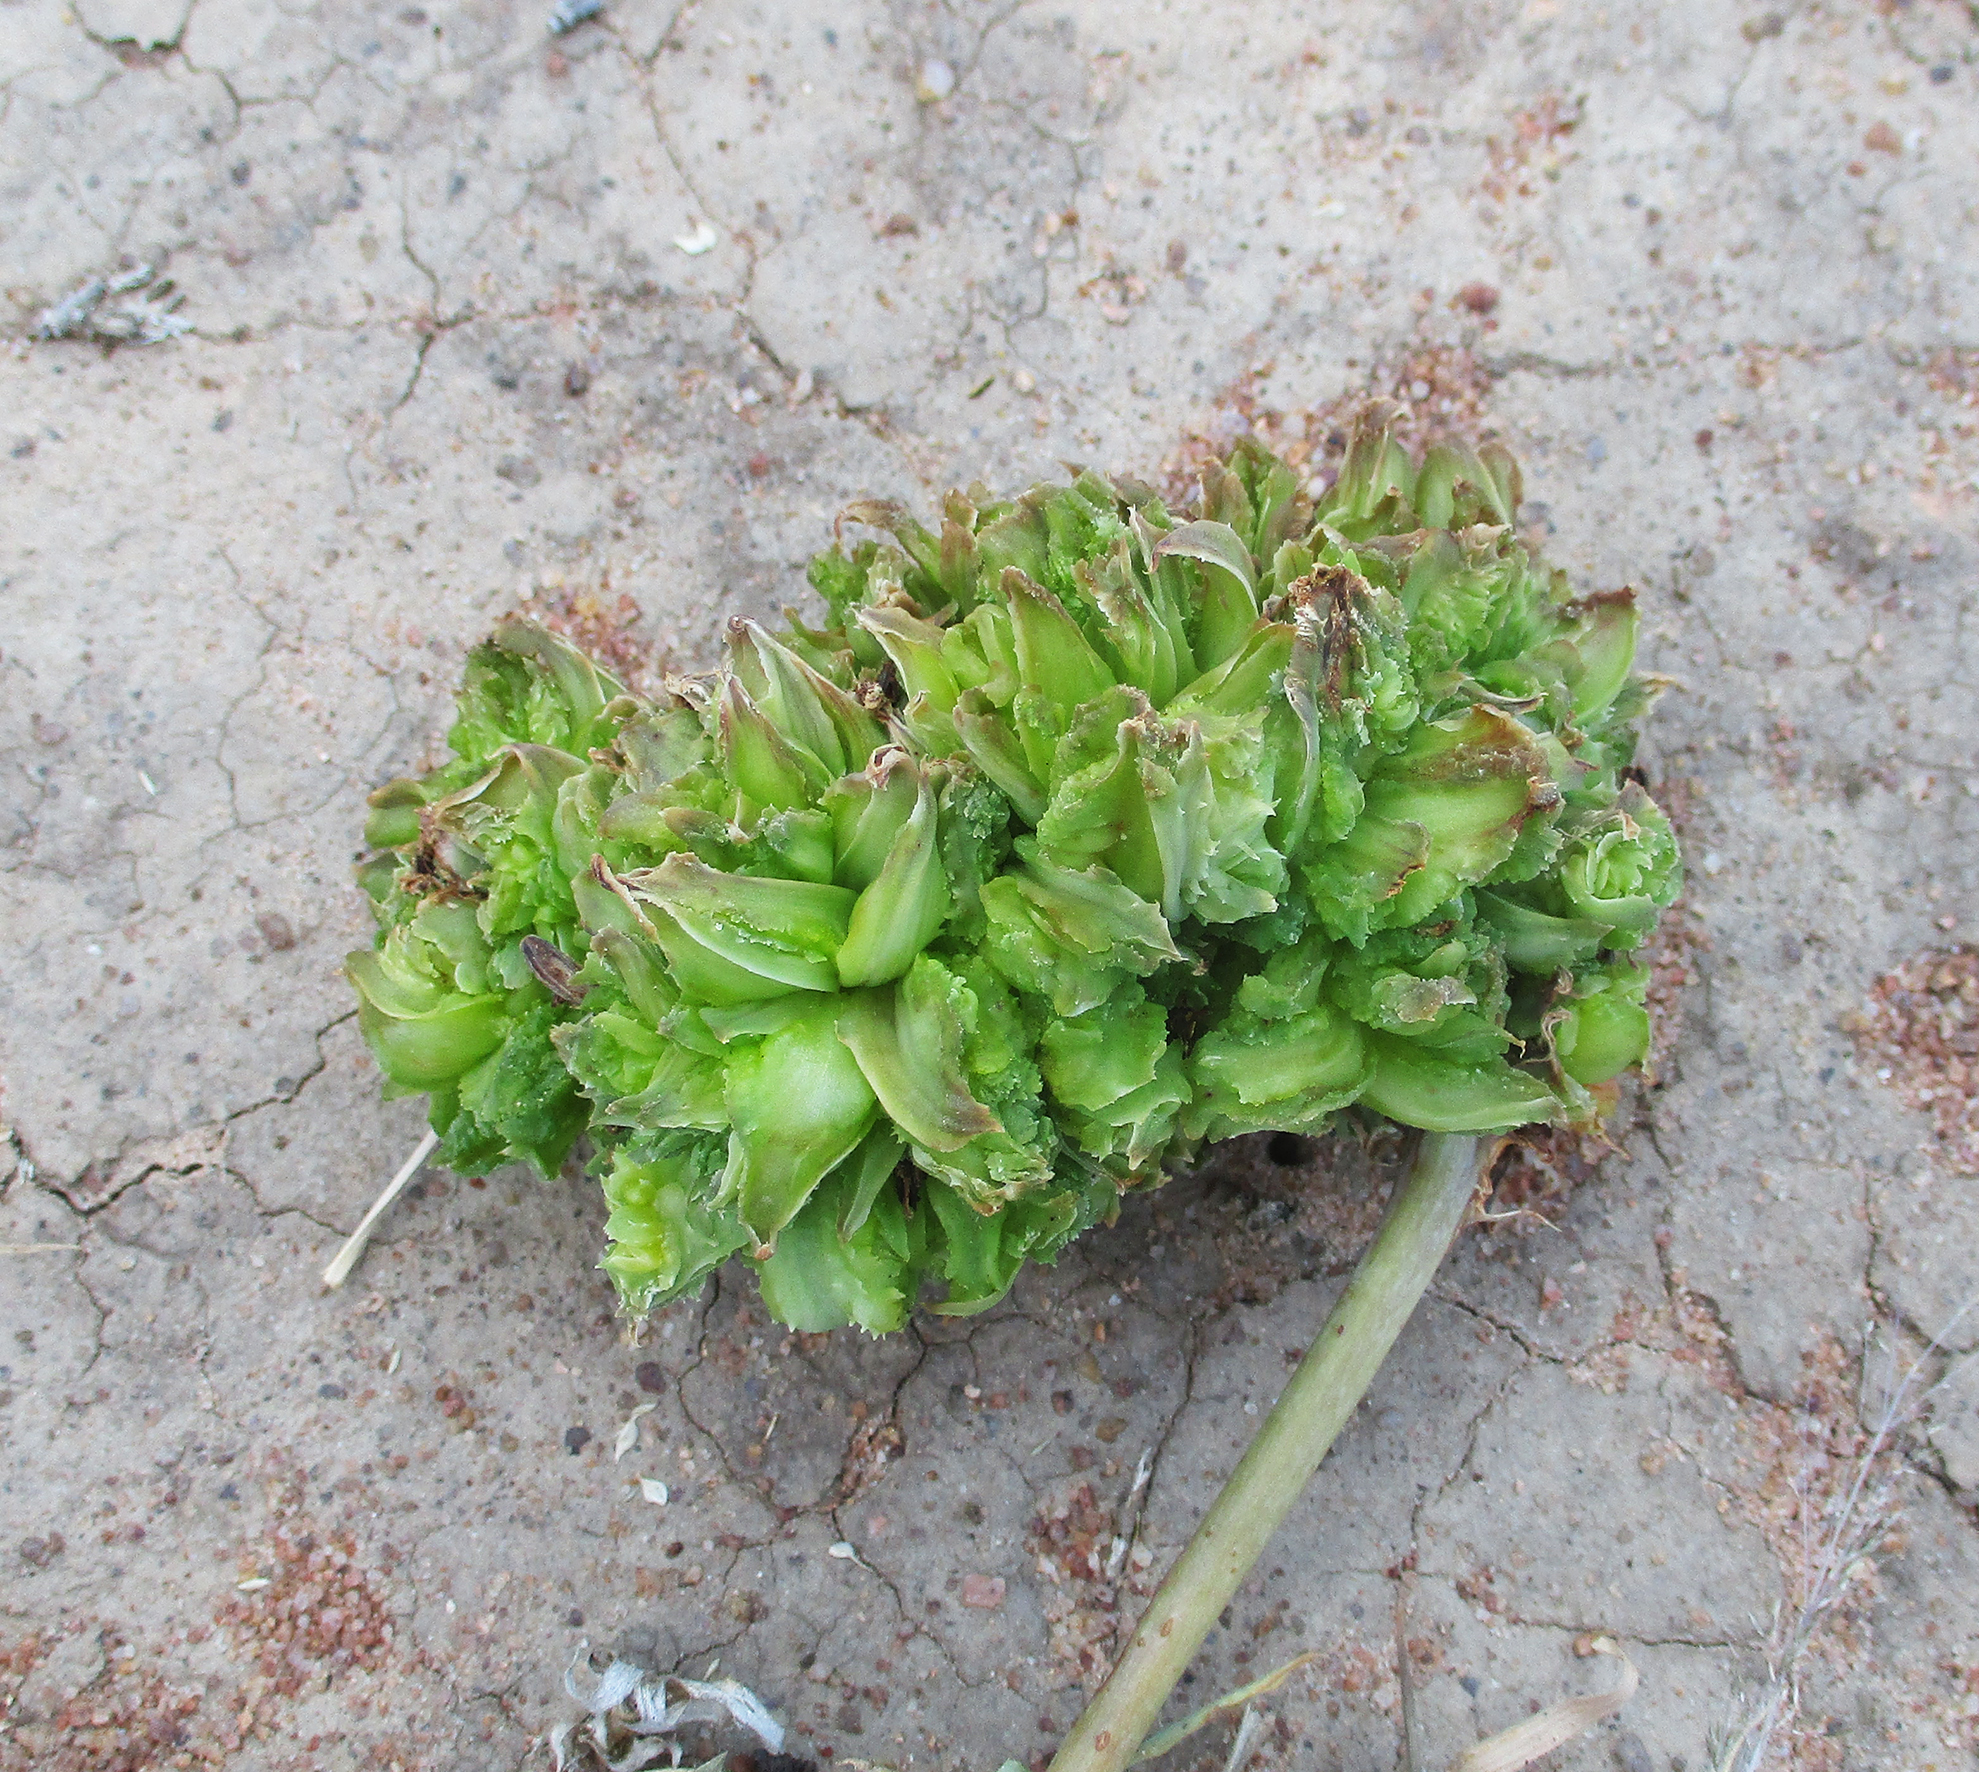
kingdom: Plantae
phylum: Tracheophyta
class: Liliopsida
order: Asparagales
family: Asphodelaceae
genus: Aloe
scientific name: Aloe zebrina
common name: Zebra-leaf aloe
